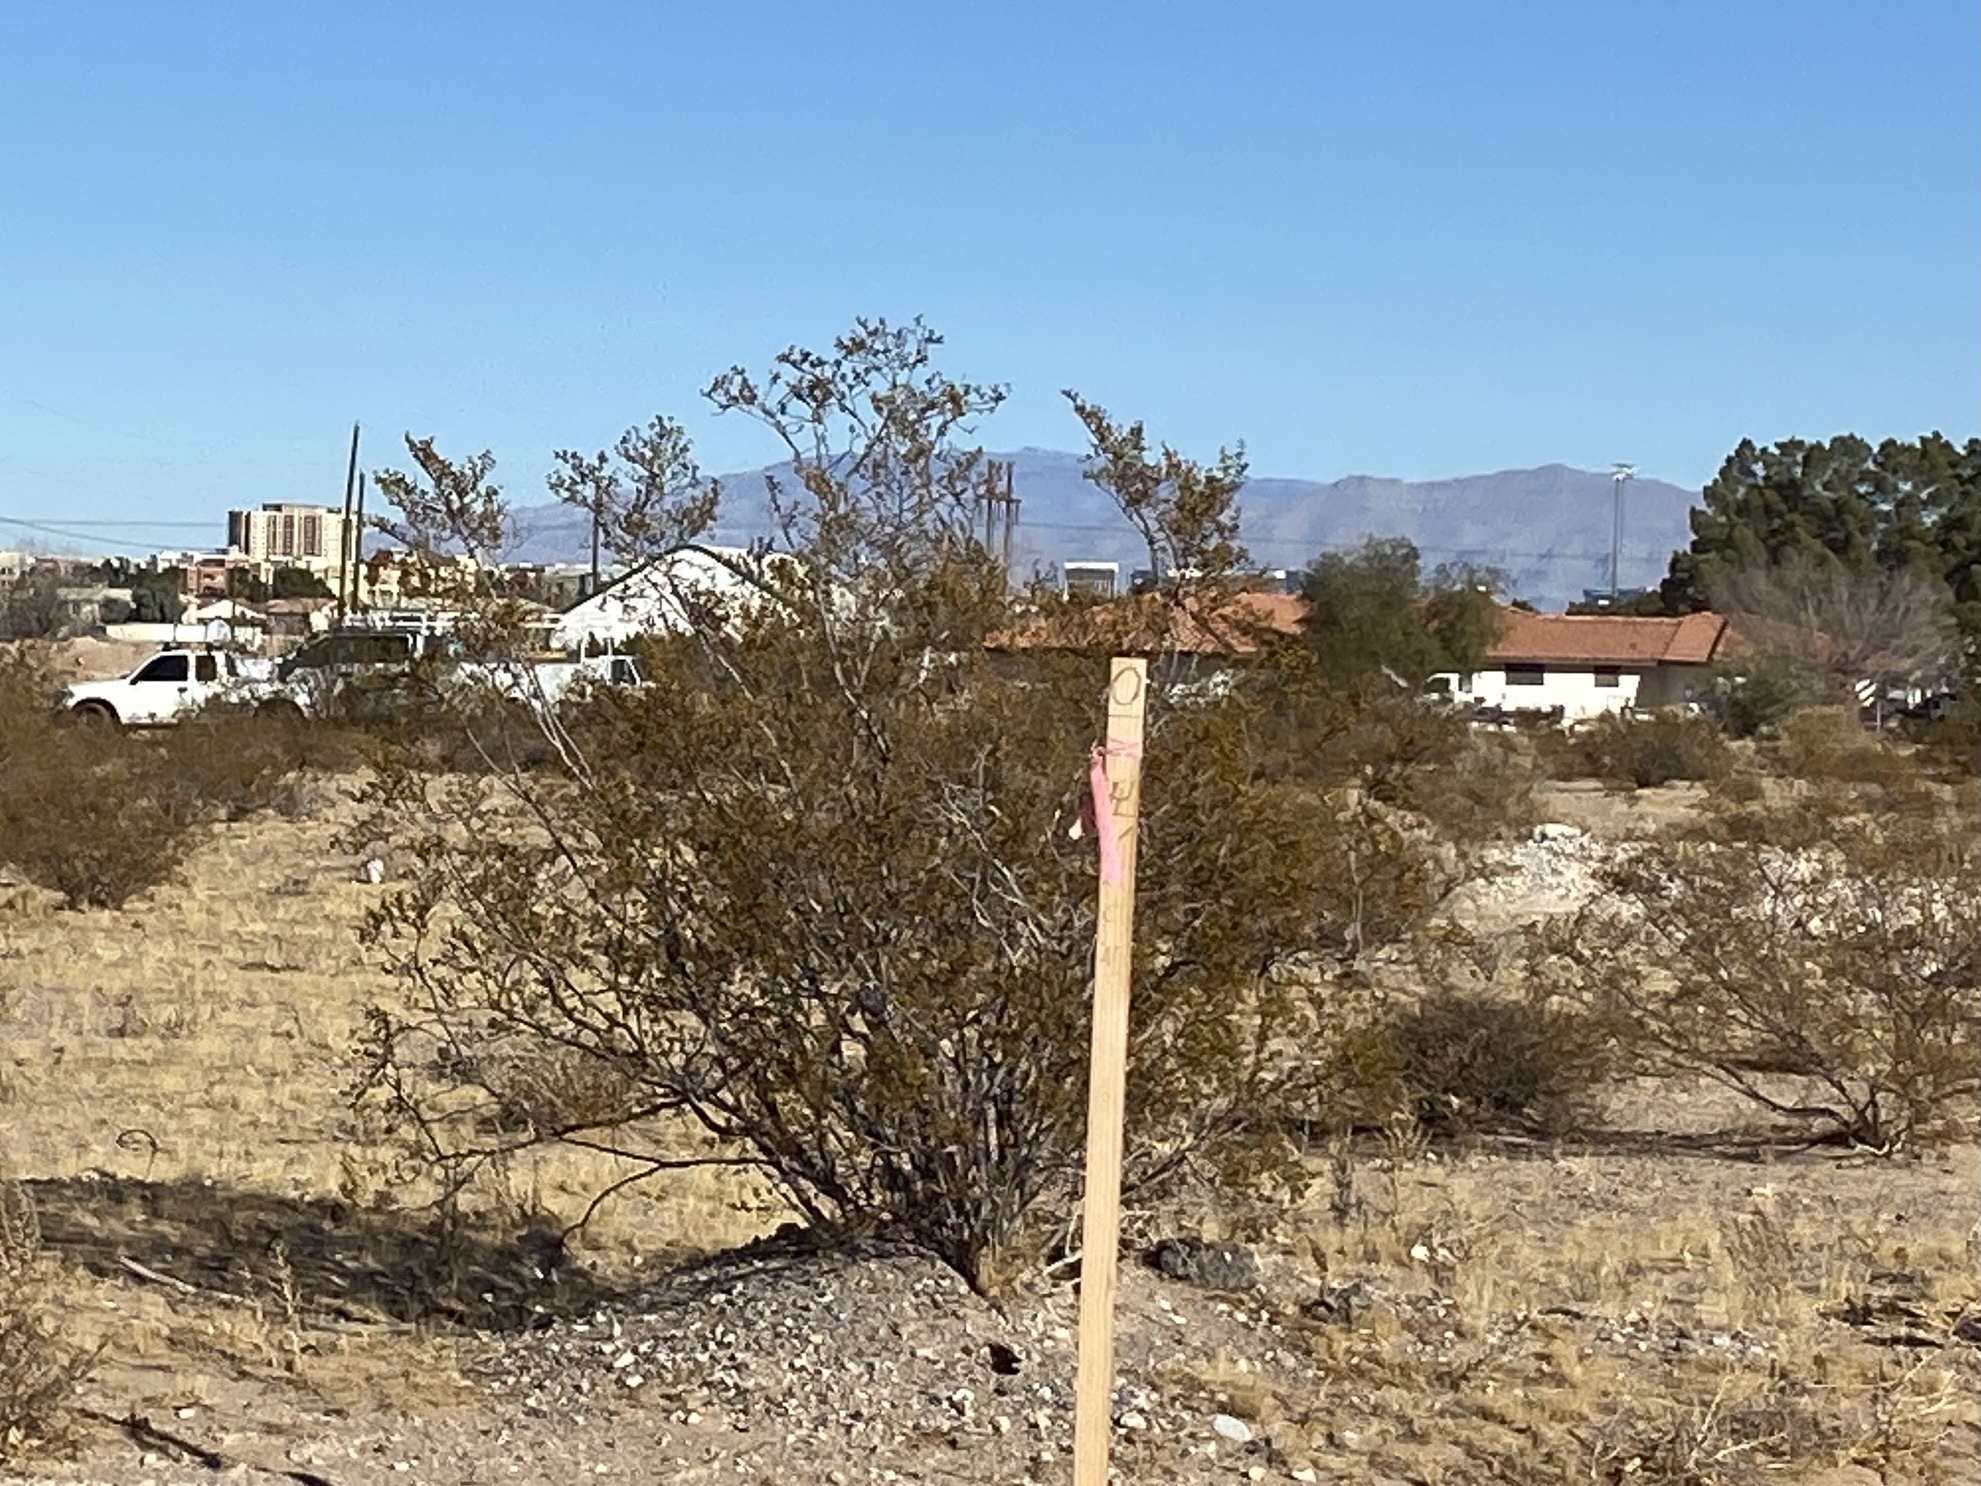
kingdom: Plantae
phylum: Tracheophyta
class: Magnoliopsida
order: Zygophyllales
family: Zygophyllaceae
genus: Larrea
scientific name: Larrea tridentata
